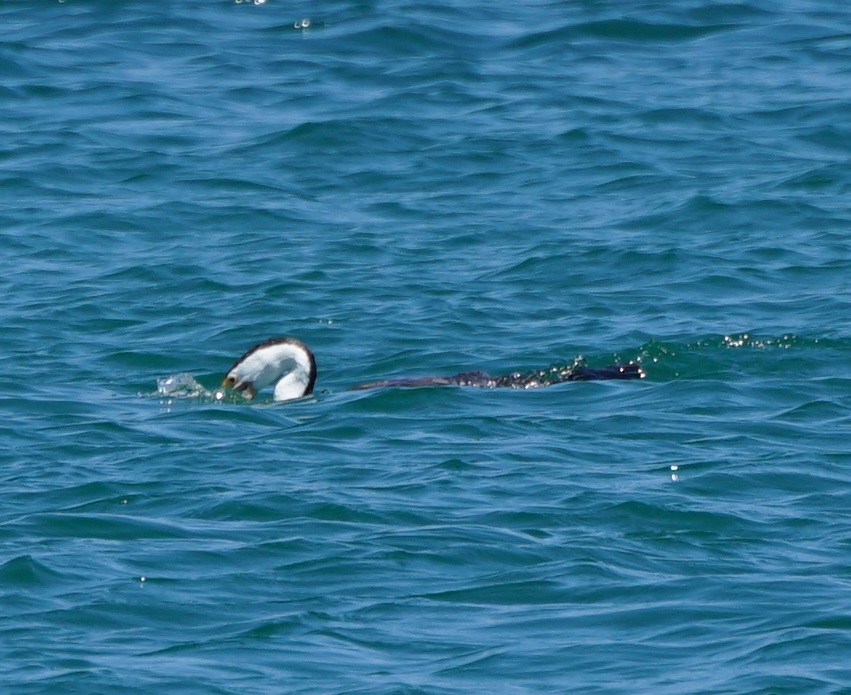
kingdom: Animalia
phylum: Chordata
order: Scorpaeniformes
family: Platycephalidae
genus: Platycephalus
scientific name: Platycephalus fuscus
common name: Dusky flathead
